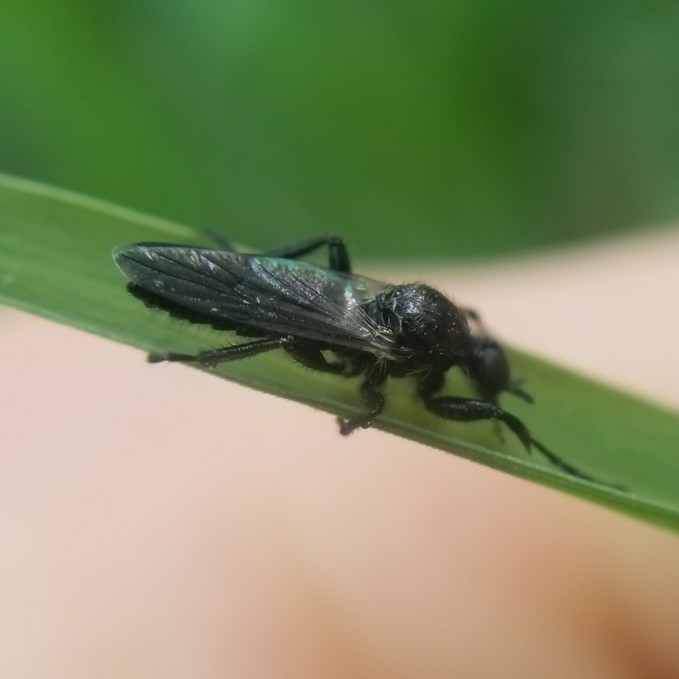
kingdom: Animalia
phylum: Arthropoda
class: Insecta
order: Diptera
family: Bibionidae
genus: Bibio
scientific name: Bibio albipennis
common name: White-winged march fly
